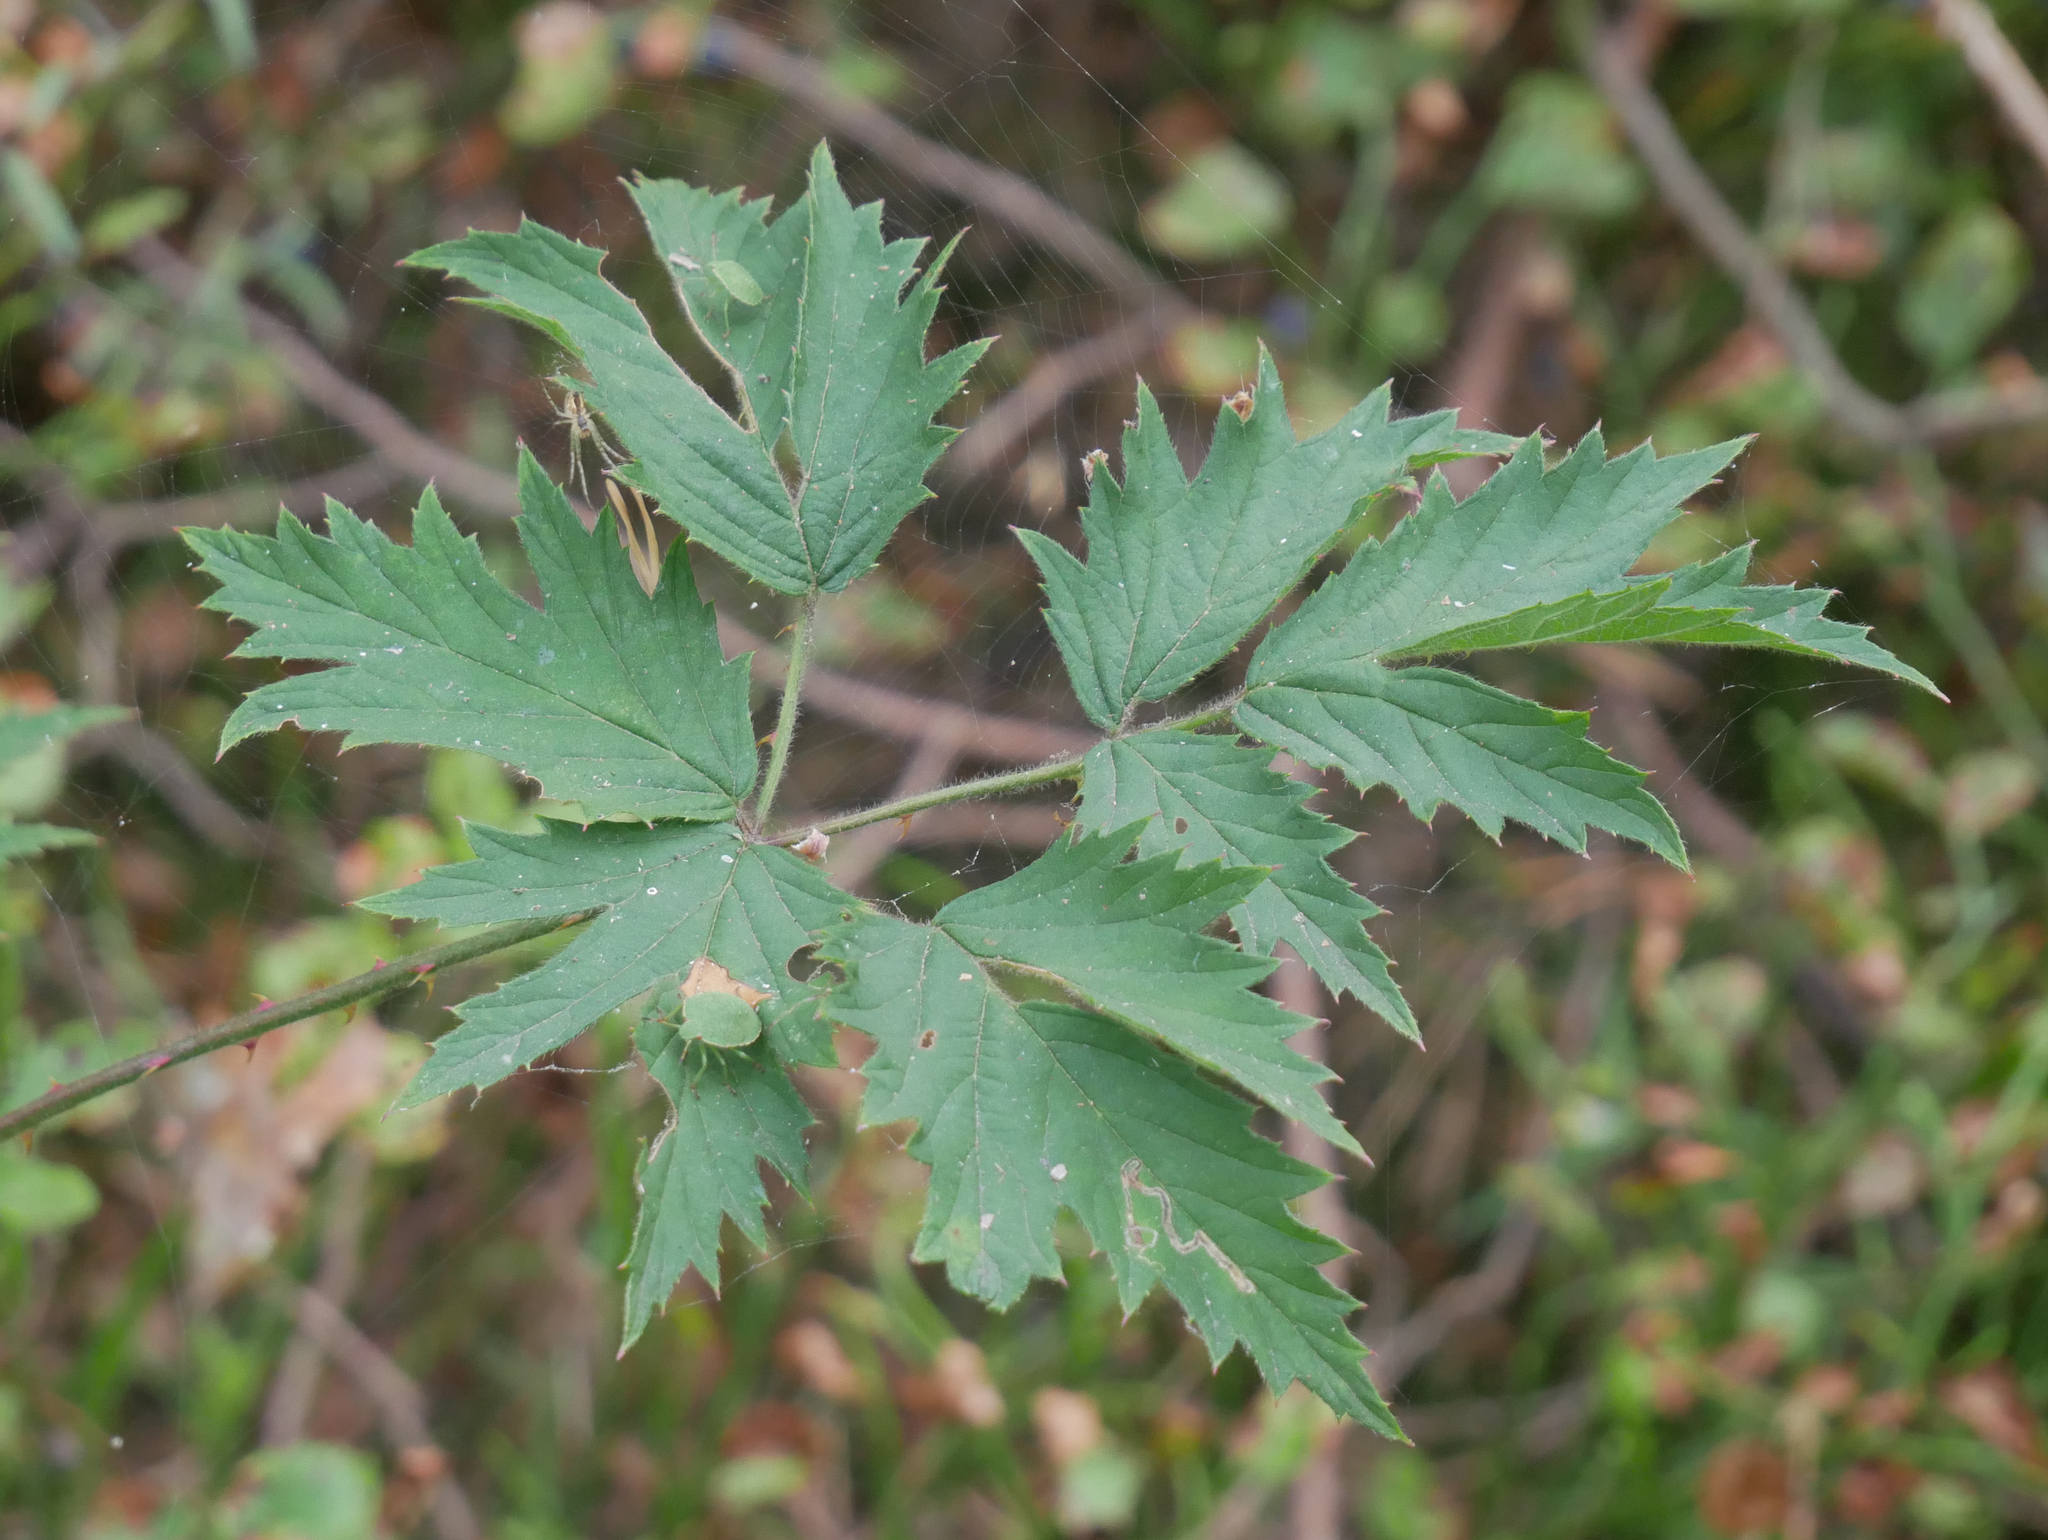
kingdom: Plantae
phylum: Tracheophyta
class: Magnoliopsida
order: Rosales
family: Rosaceae
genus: Rubus
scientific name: Rubus laciniatus
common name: Evergreen blackberry
